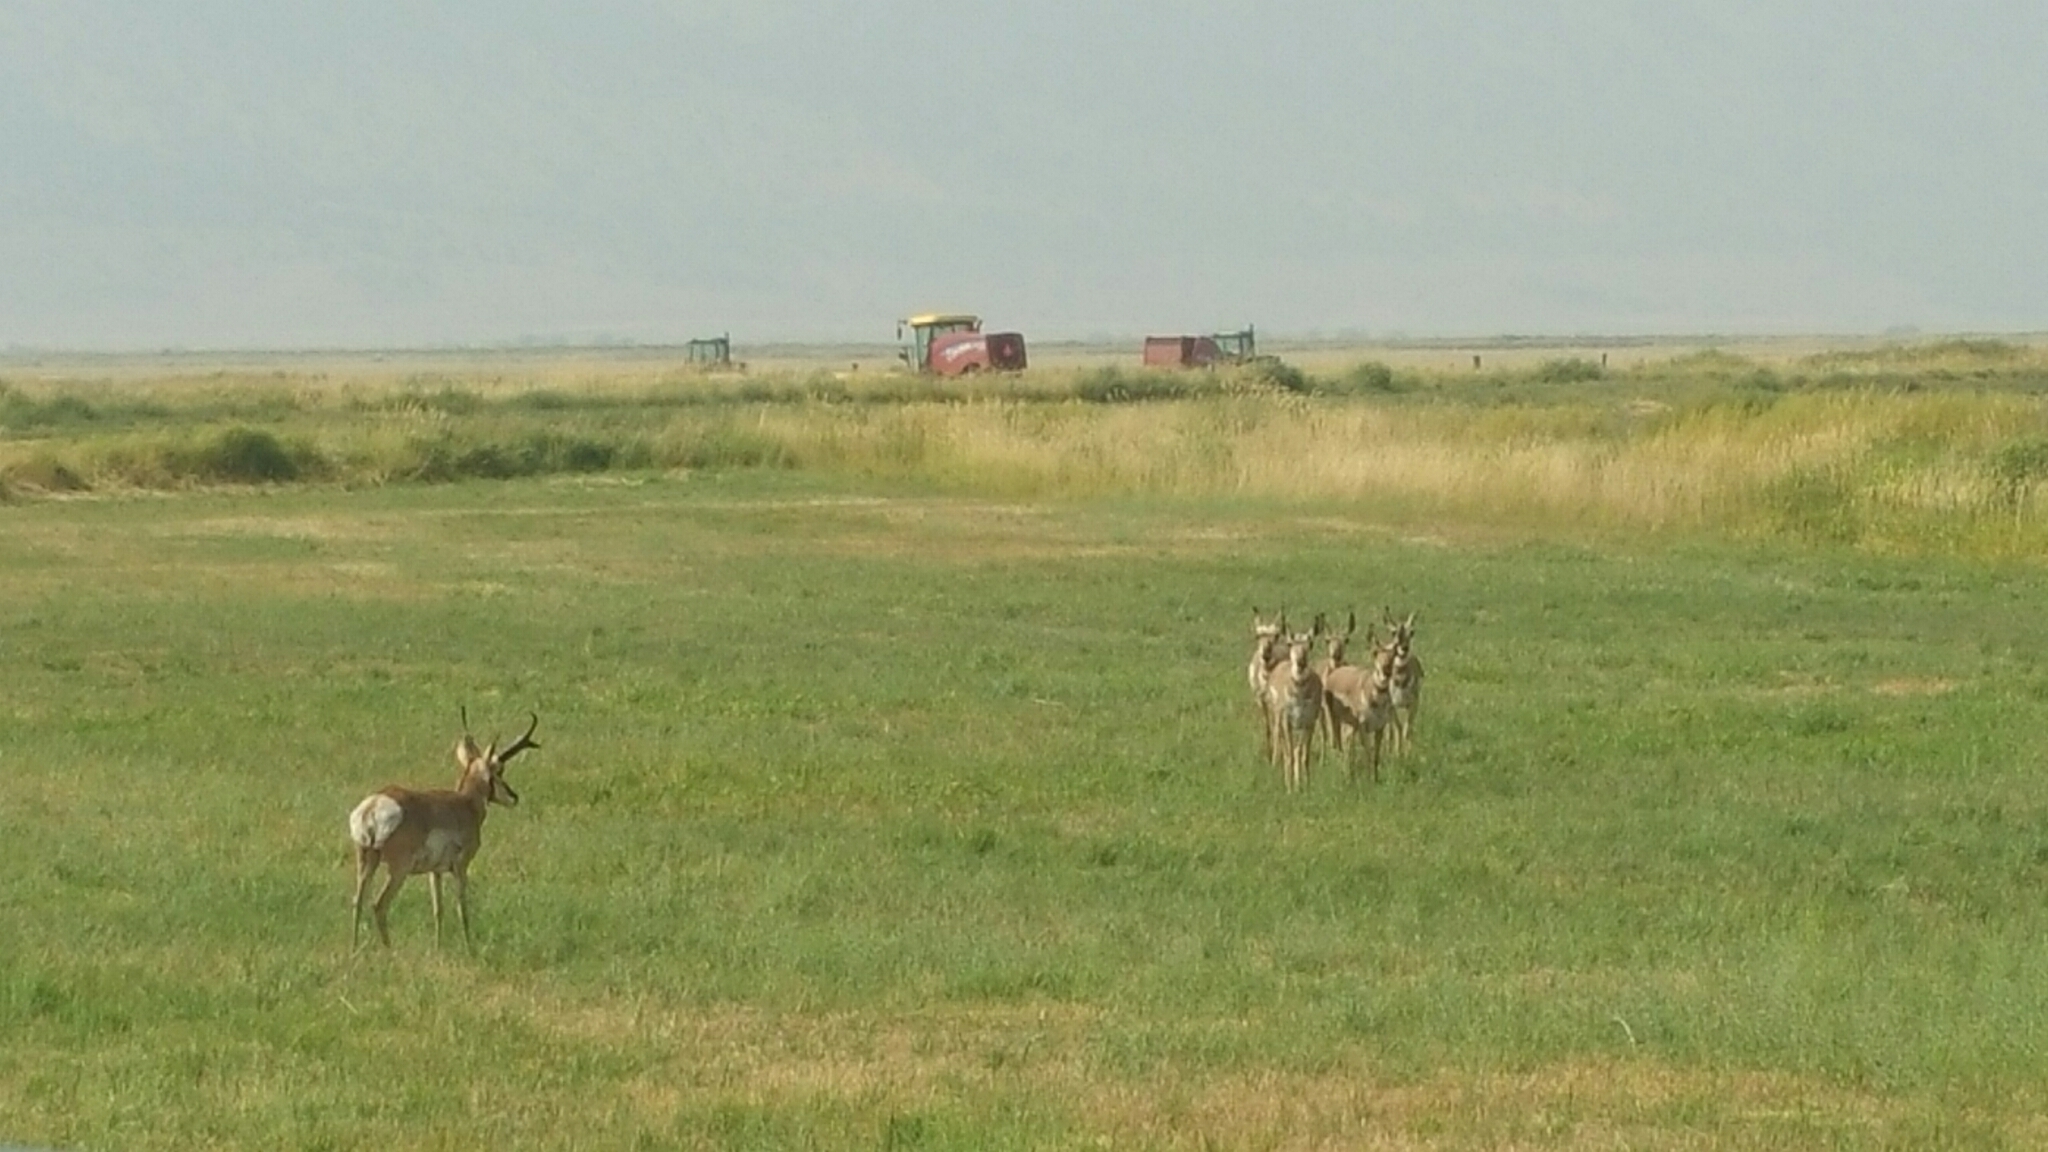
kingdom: Animalia
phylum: Chordata
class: Mammalia
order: Artiodactyla
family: Antilocapridae
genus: Antilocapra
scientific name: Antilocapra americana
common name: Pronghorn
